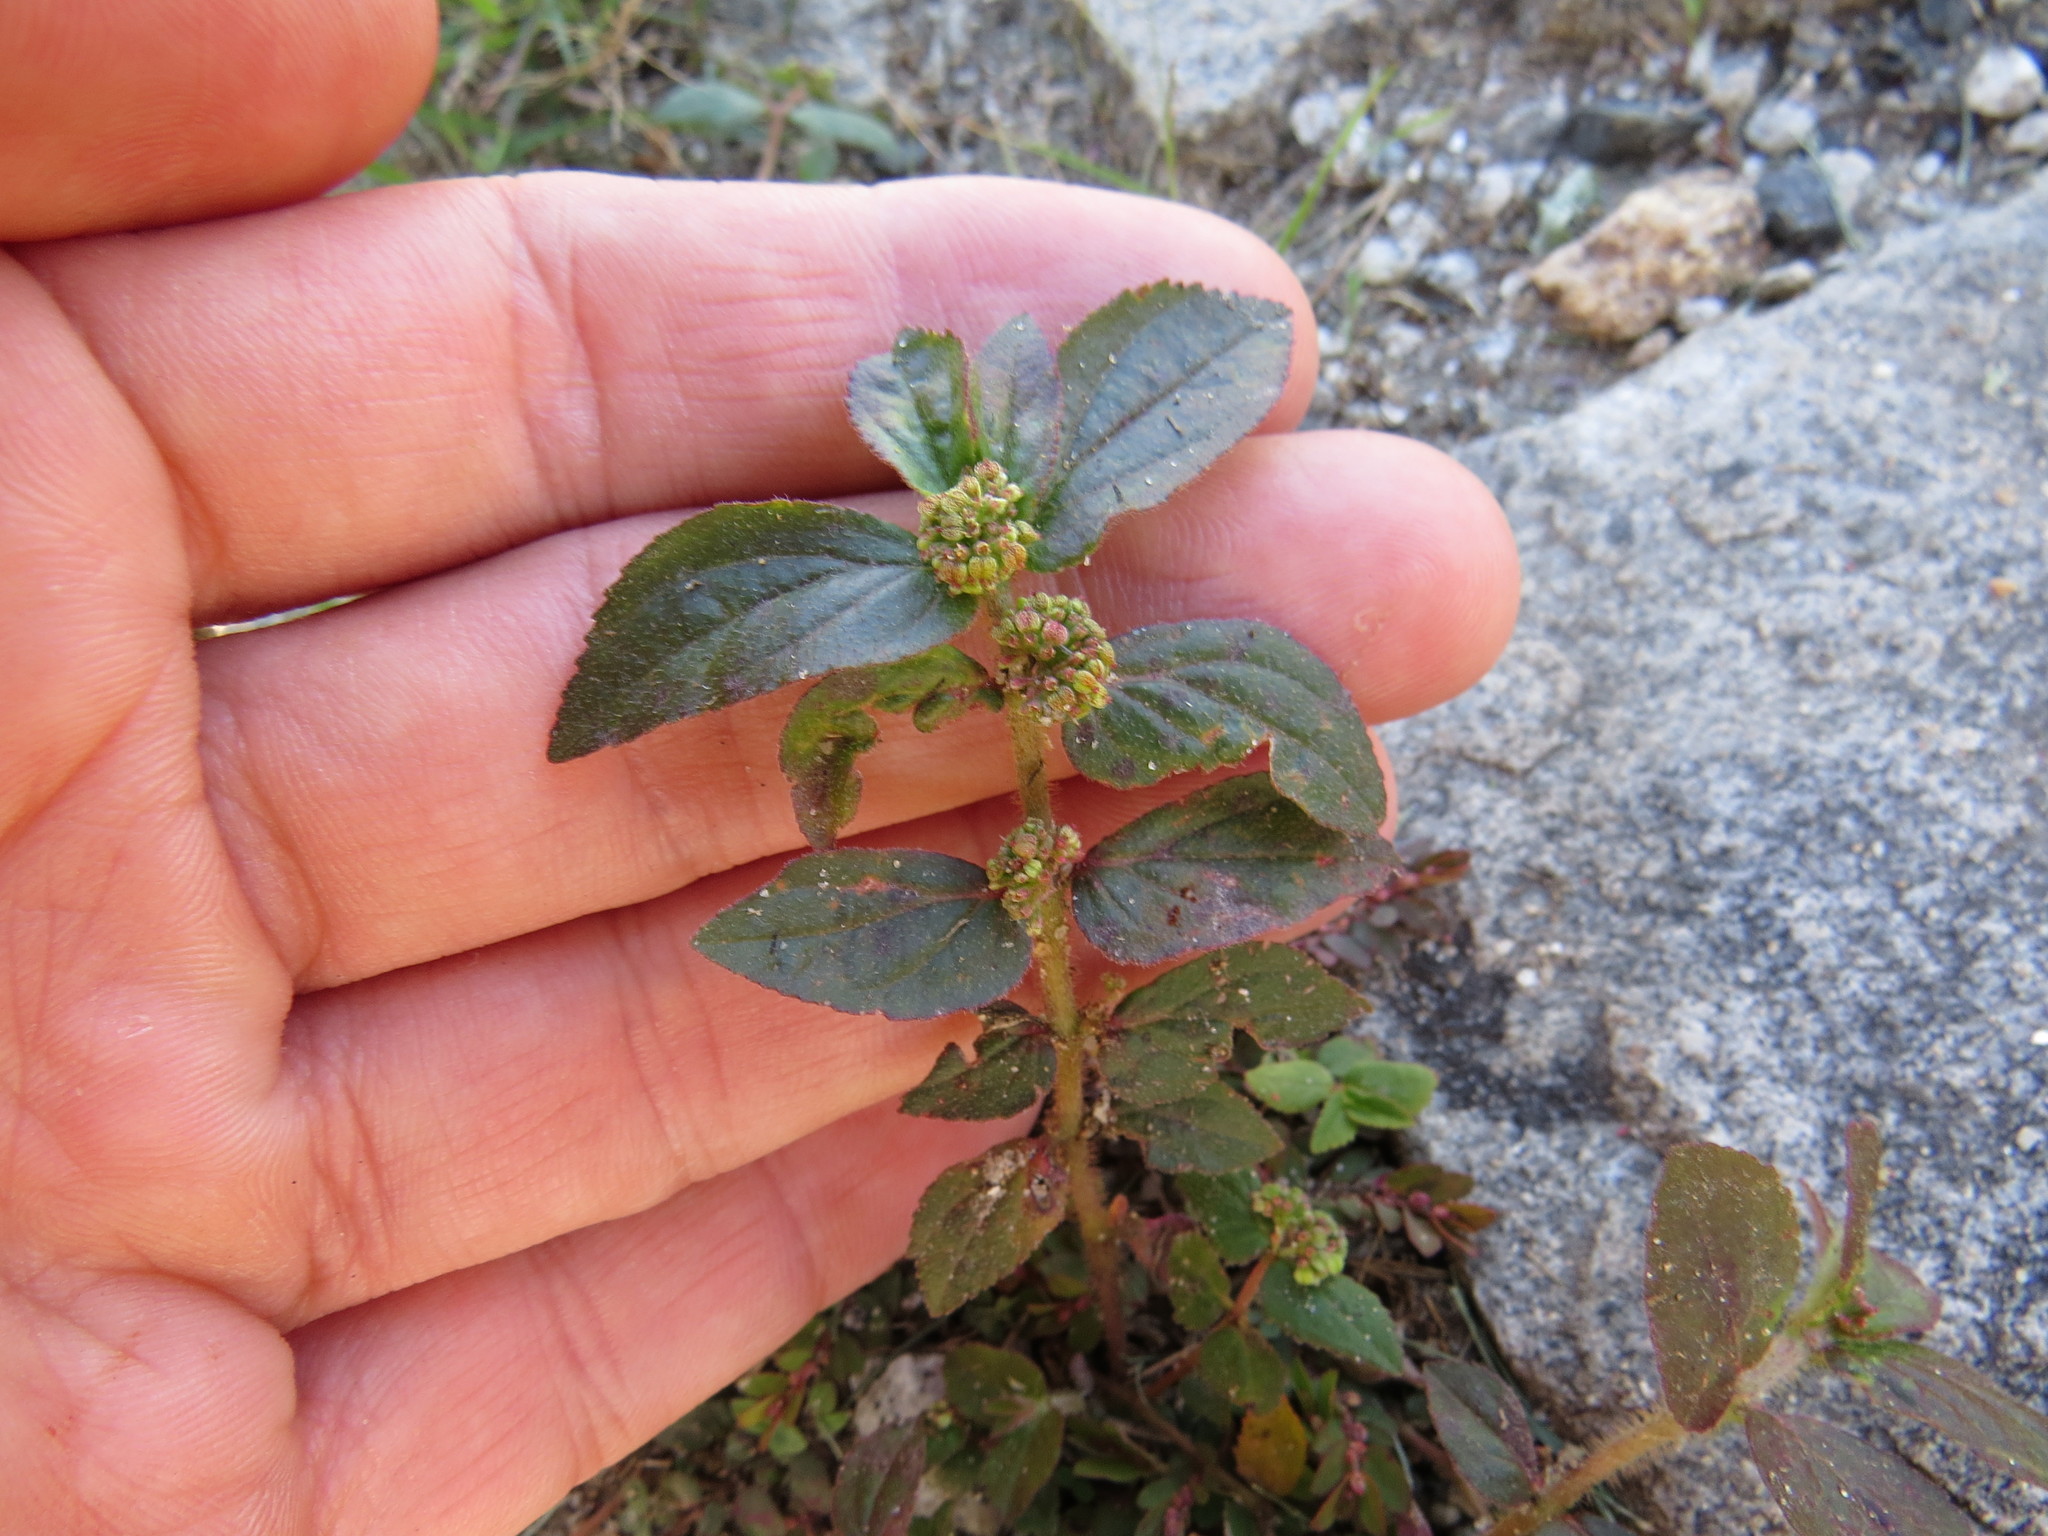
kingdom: Plantae
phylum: Tracheophyta
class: Magnoliopsida
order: Malpighiales
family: Euphorbiaceae
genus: Euphorbia
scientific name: Euphorbia hirta
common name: Pillpod sandmat
